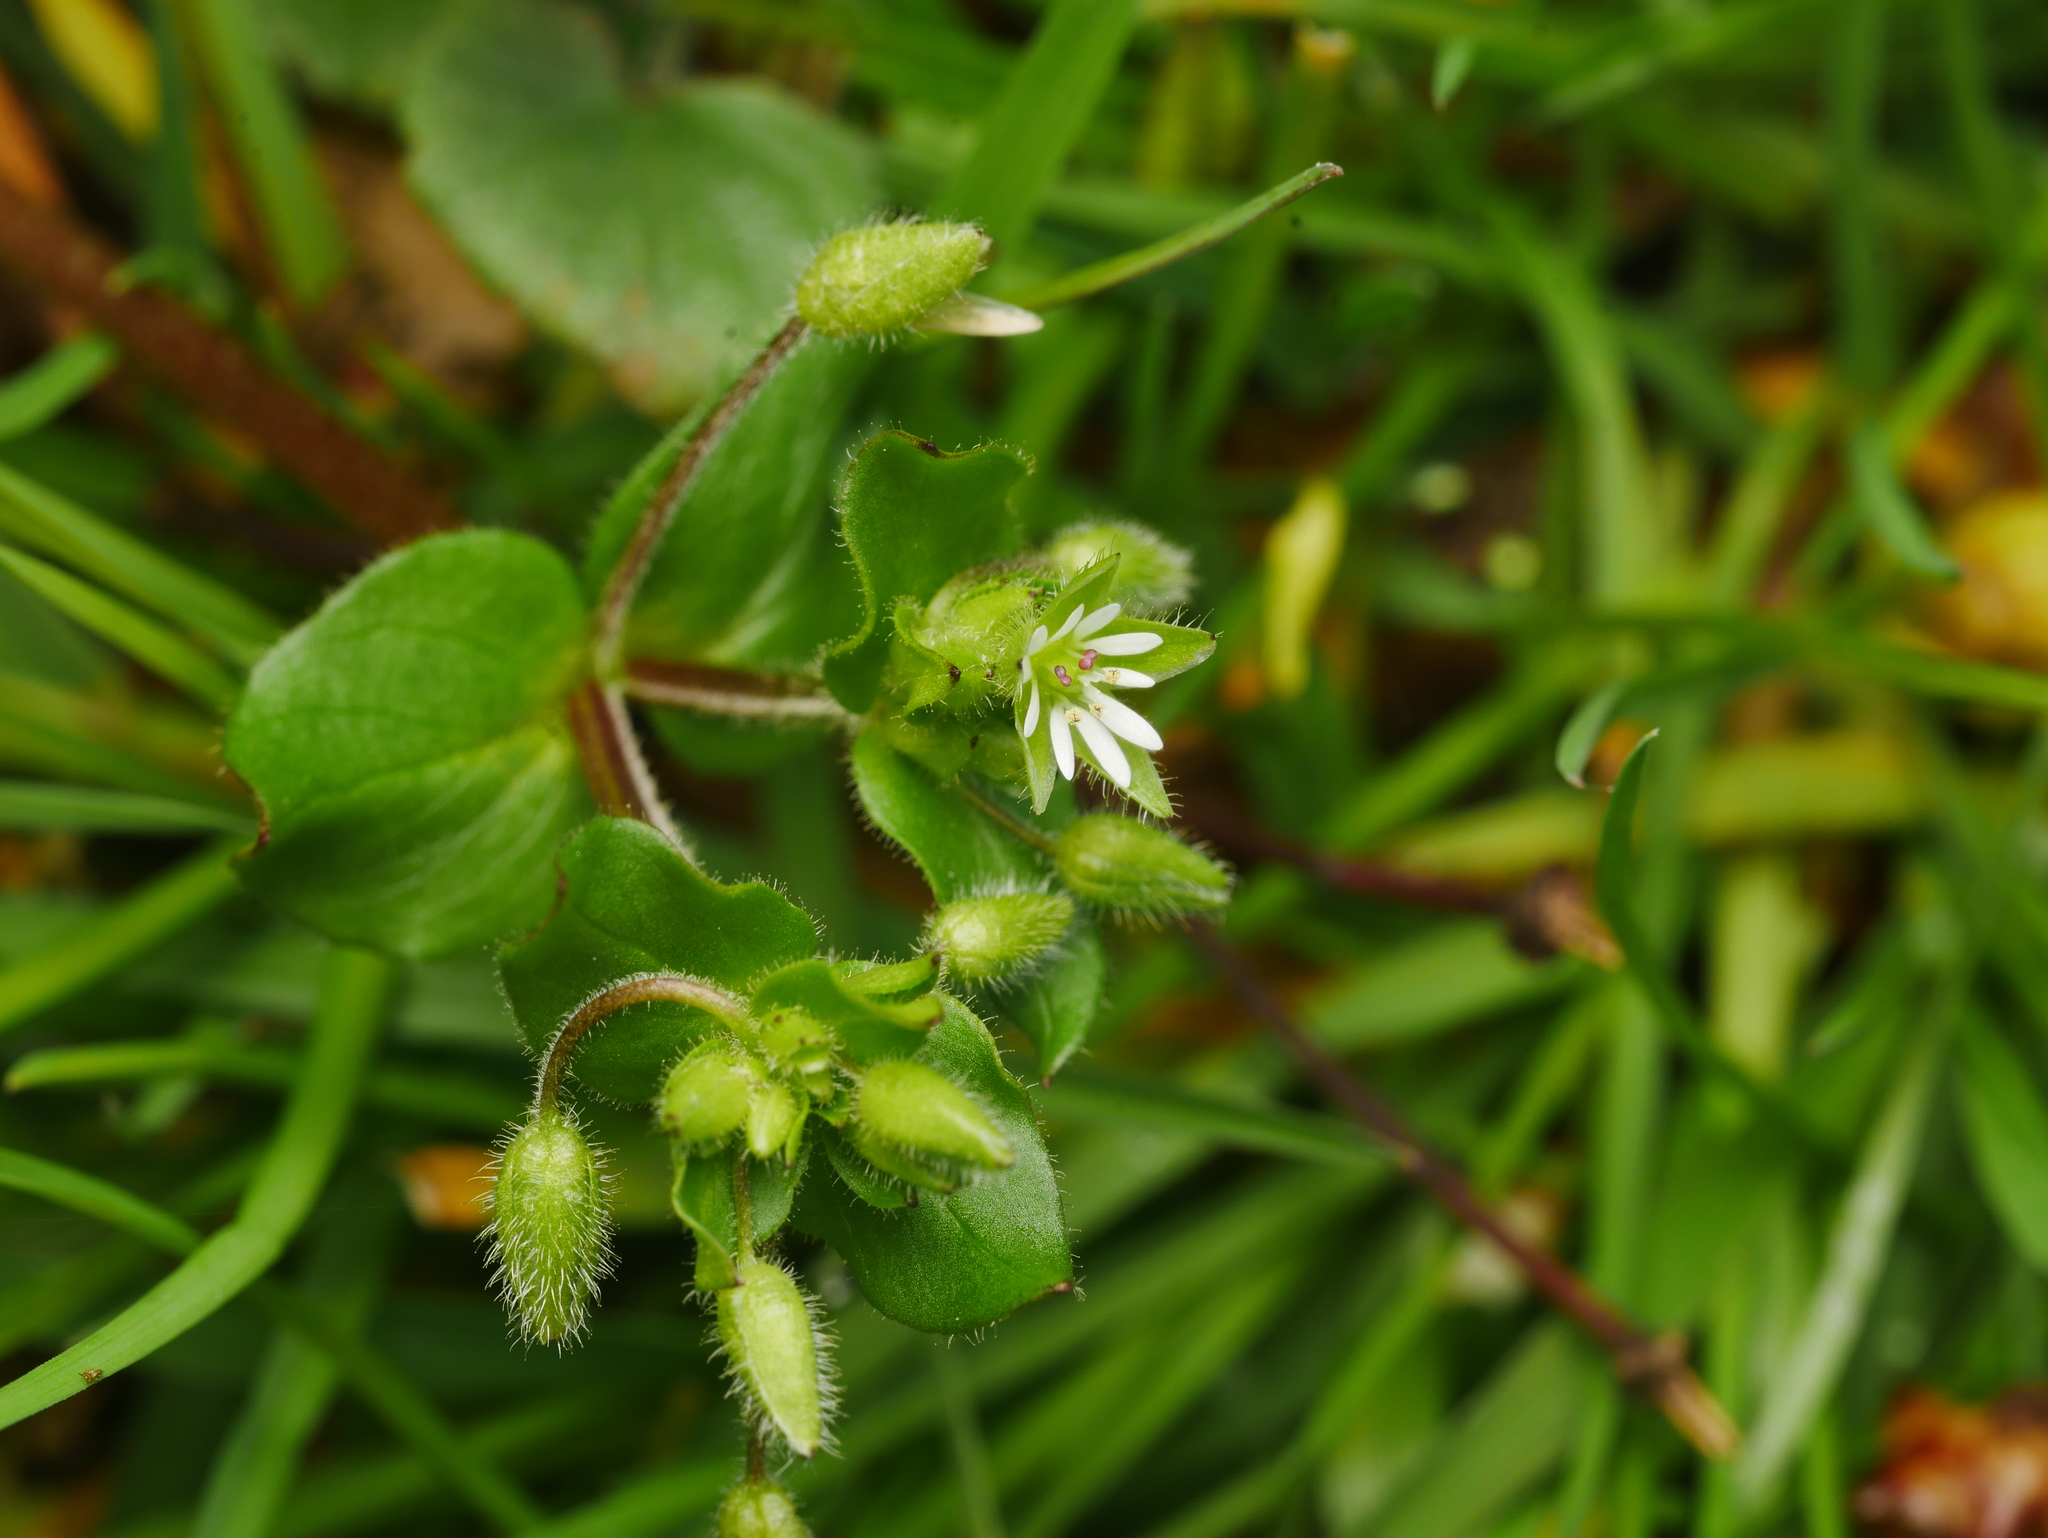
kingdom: Plantae
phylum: Tracheophyta
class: Magnoliopsida
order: Caryophyllales
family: Caryophyllaceae
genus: Stellaria
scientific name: Stellaria media
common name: Common chickweed
